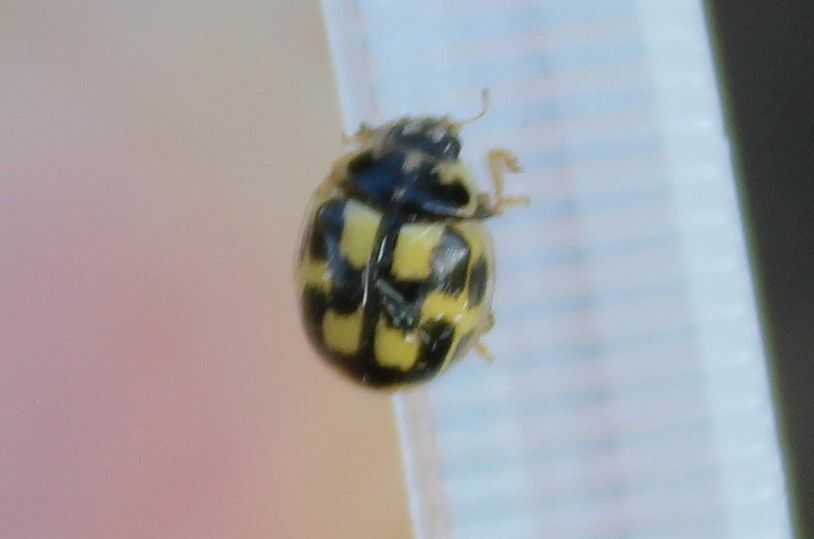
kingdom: Animalia
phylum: Arthropoda
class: Insecta
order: Coleoptera
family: Coccinellidae
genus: Propylaea
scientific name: Propylaea quatuordecimpunctata
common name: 14-spotted ladybird beetle
